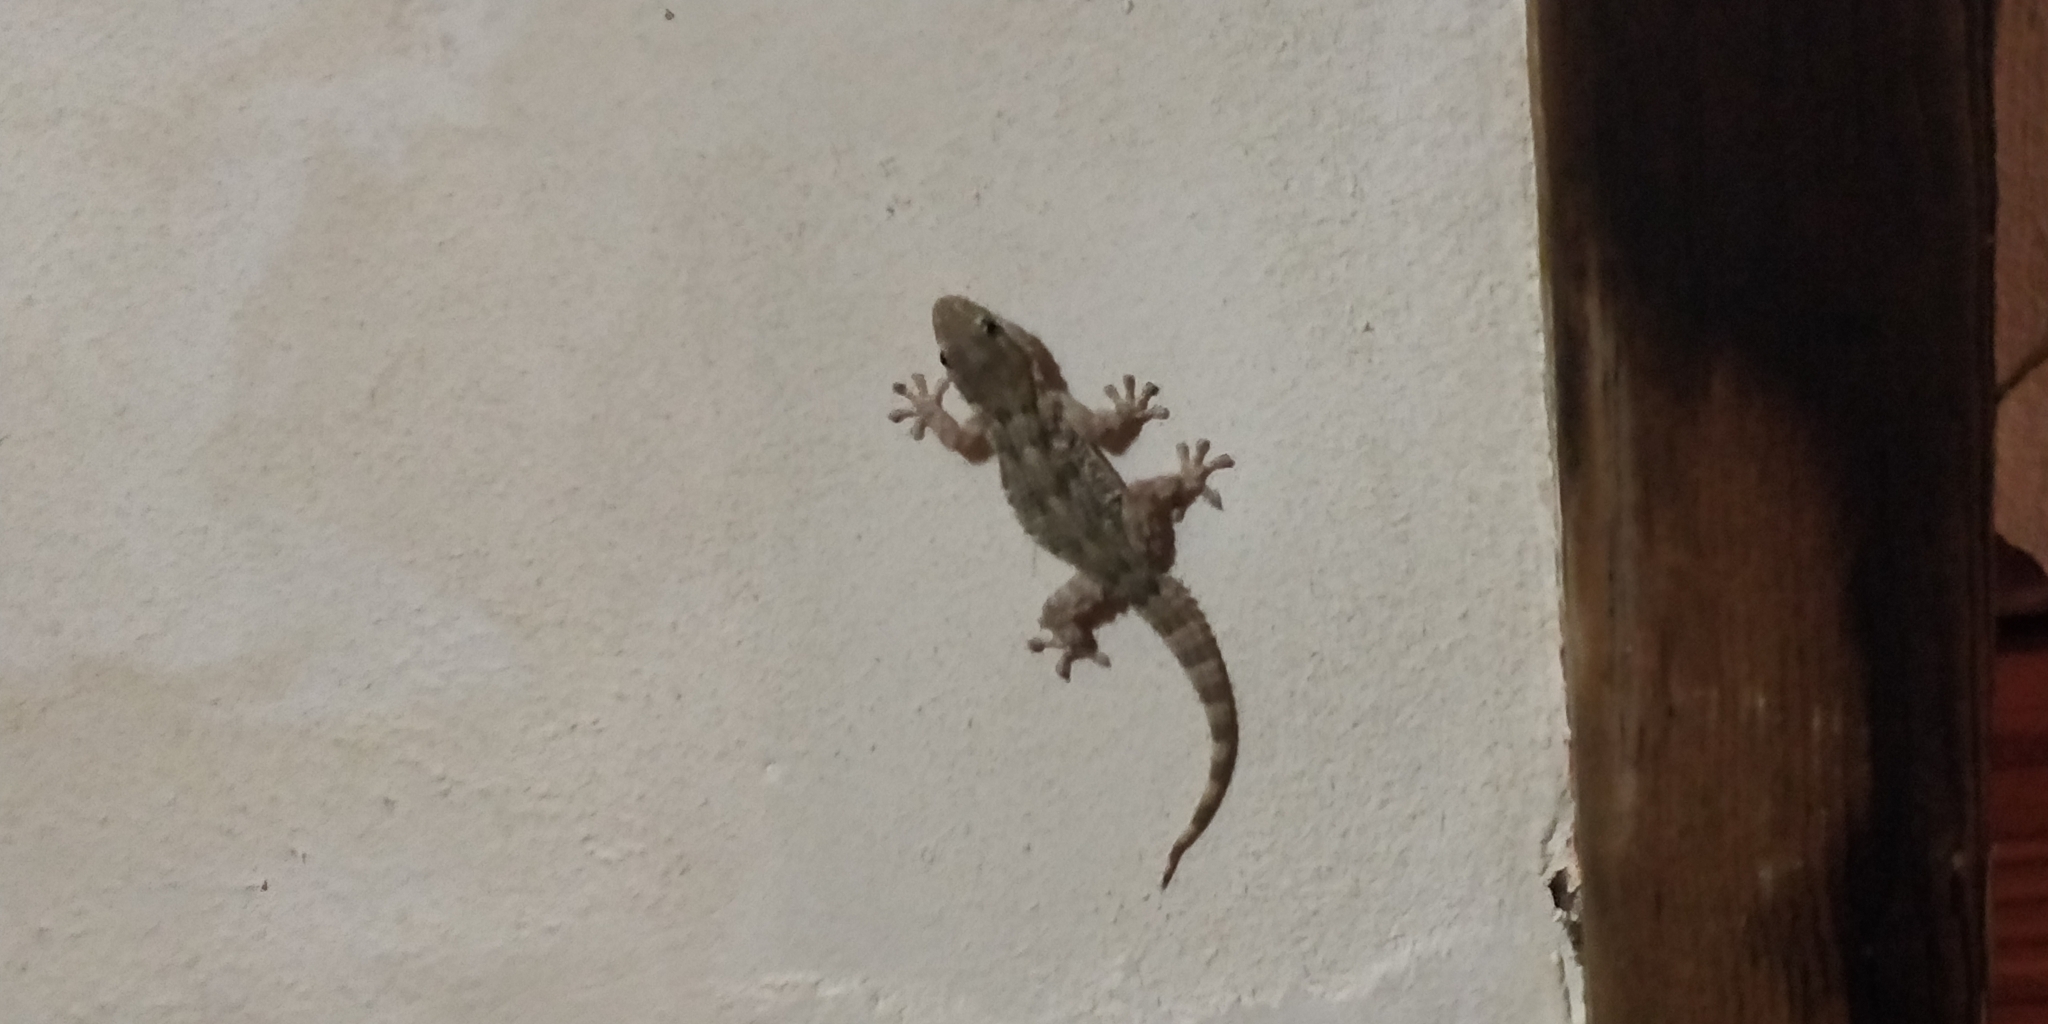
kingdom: Animalia
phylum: Chordata
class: Squamata
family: Phyllodactylidae
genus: Tarentola
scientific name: Tarentola mauritanica
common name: Moorish gecko
